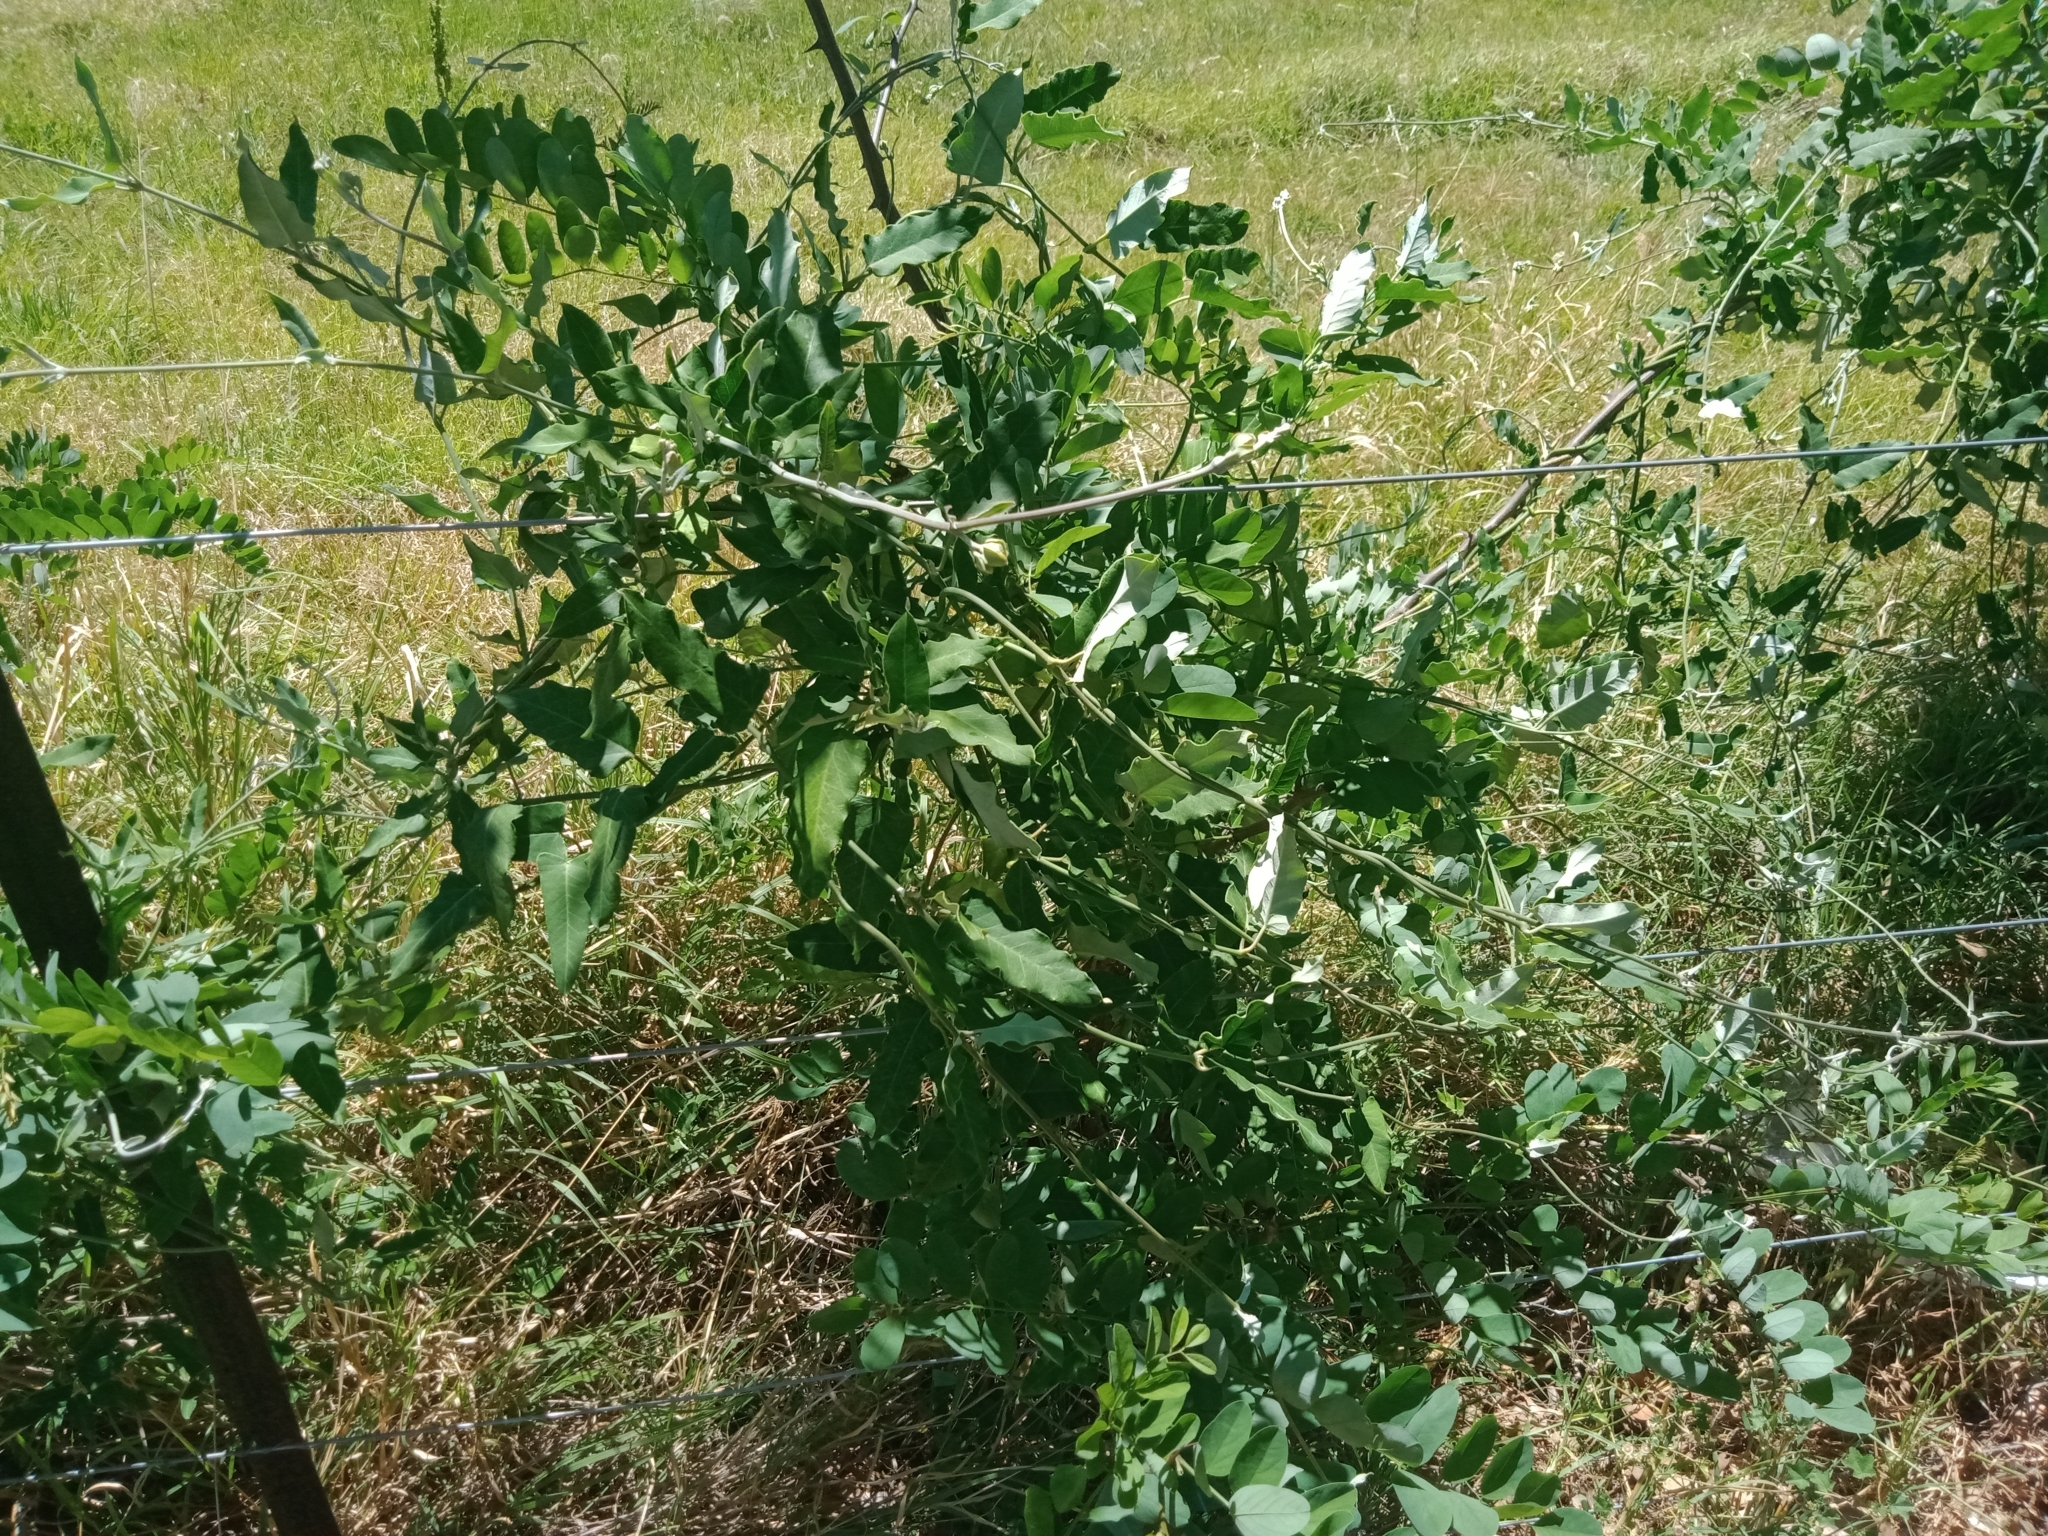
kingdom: Plantae
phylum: Tracheophyta
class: Magnoliopsida
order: Gentianales
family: Apocynaceae
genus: Araujia
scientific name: Araujia sericifera
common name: White bladderflower
